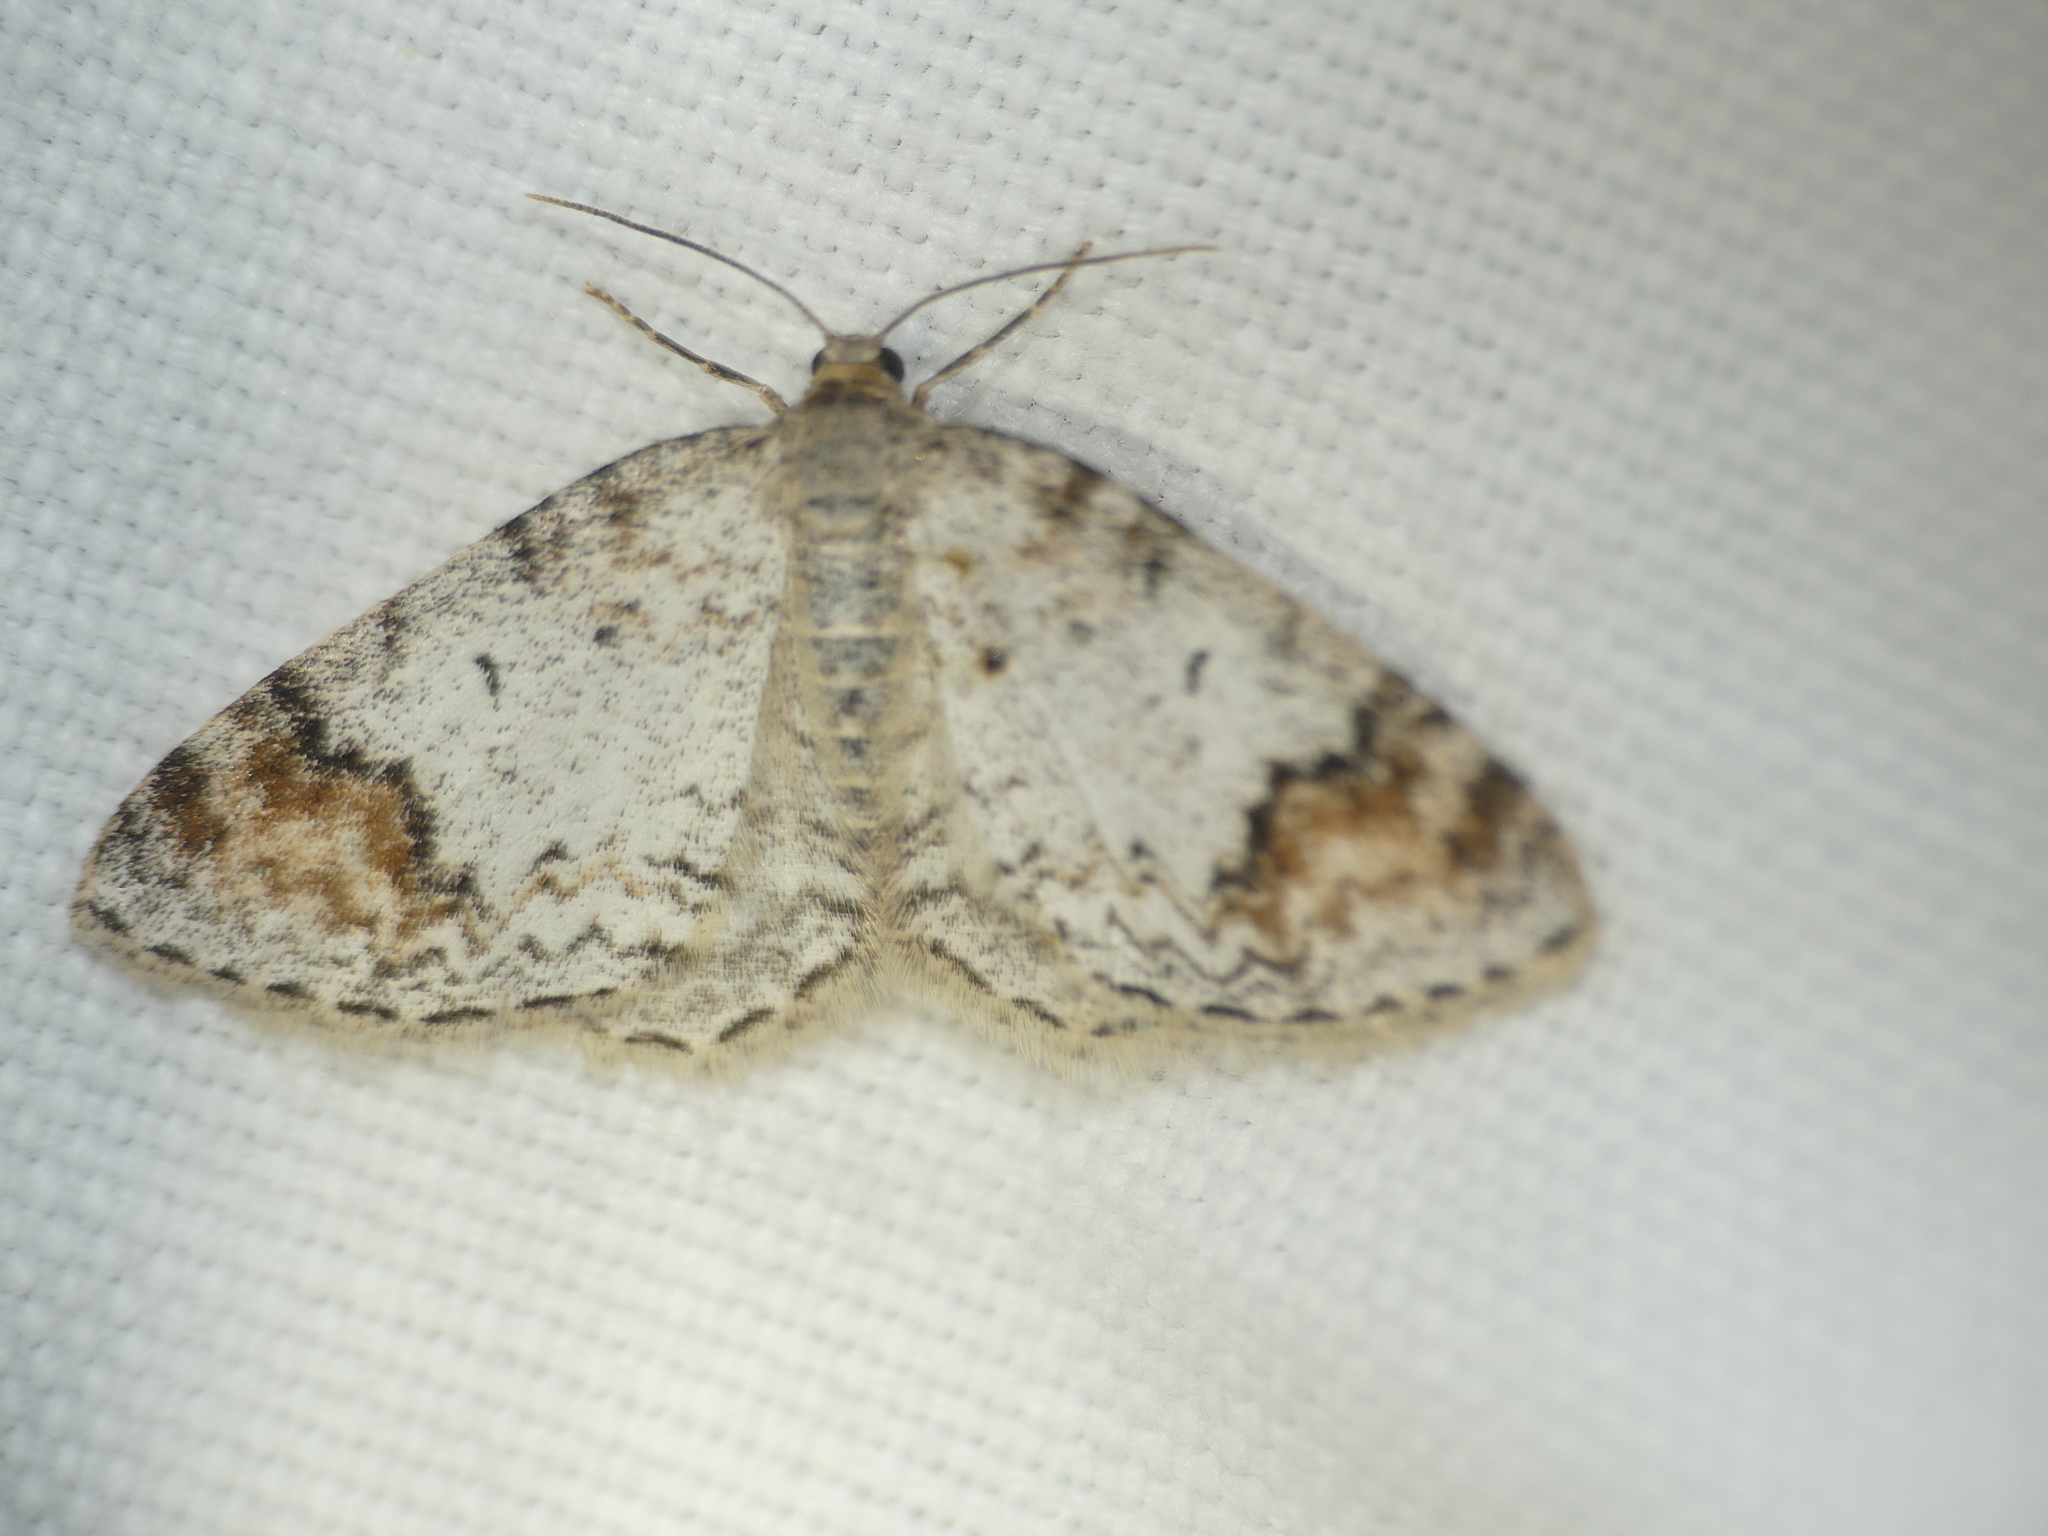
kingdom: Animalia
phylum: Arthropoda
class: Insecta
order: Lepidoptera
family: Geometridae
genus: Venusia
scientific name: Venusia blomeri
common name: Blomer's rivulet
